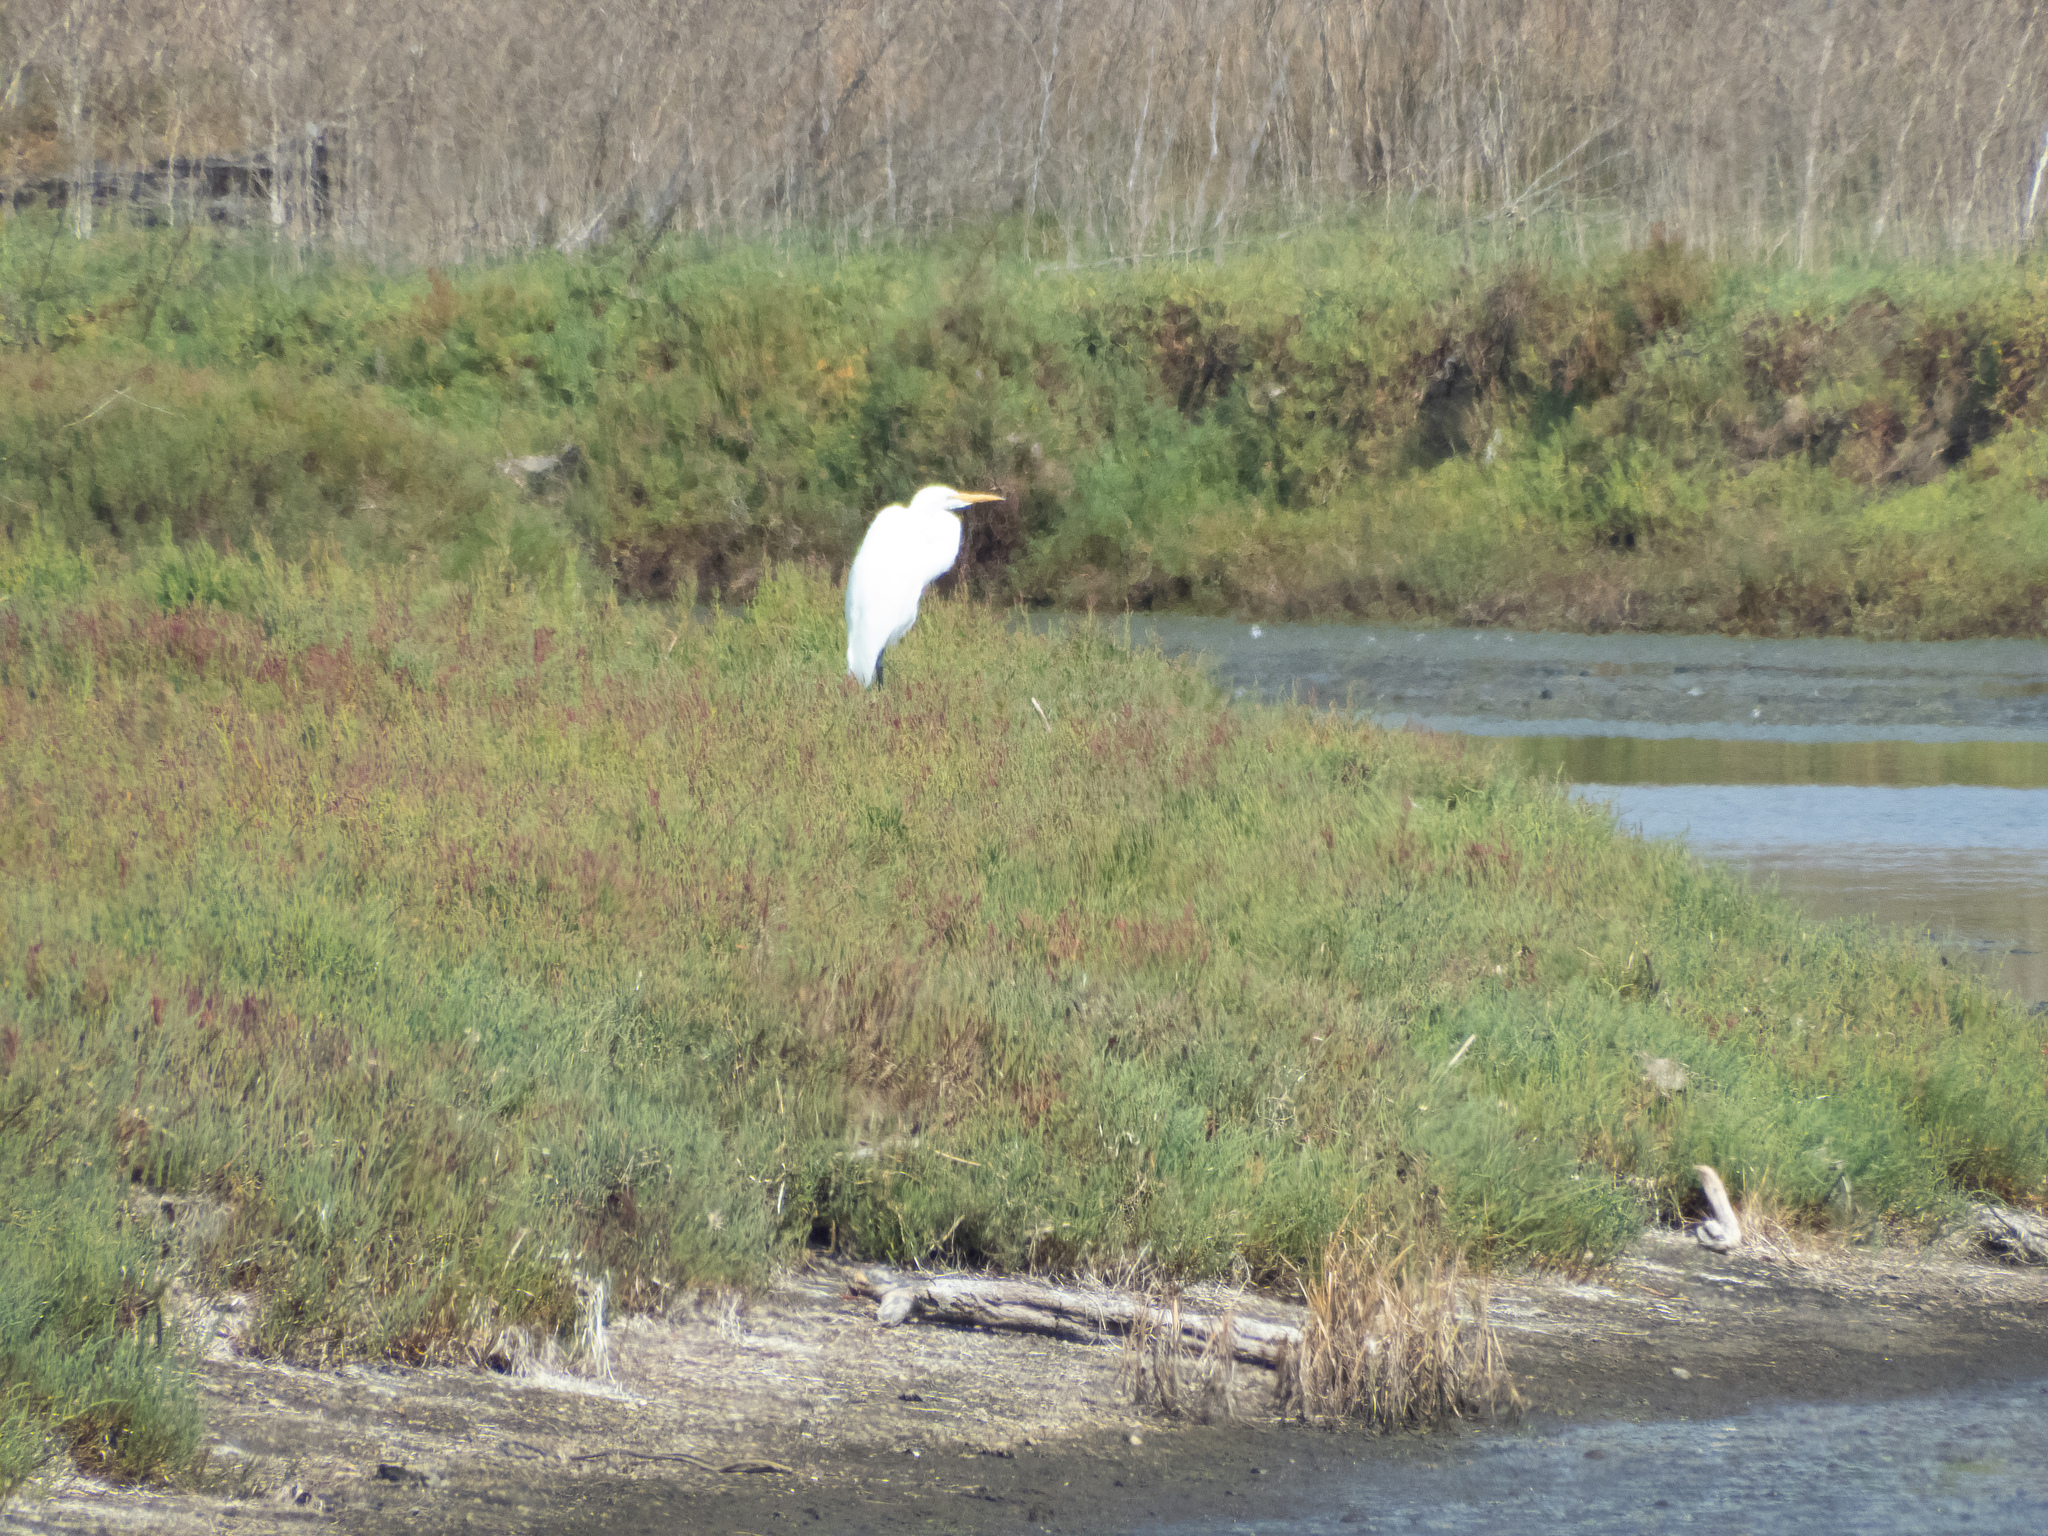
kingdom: Animalia
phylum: Chordata
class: Aves
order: Pelecaniformes
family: Ardeidae
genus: Ardea
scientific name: Ardea alba
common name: Great egret
